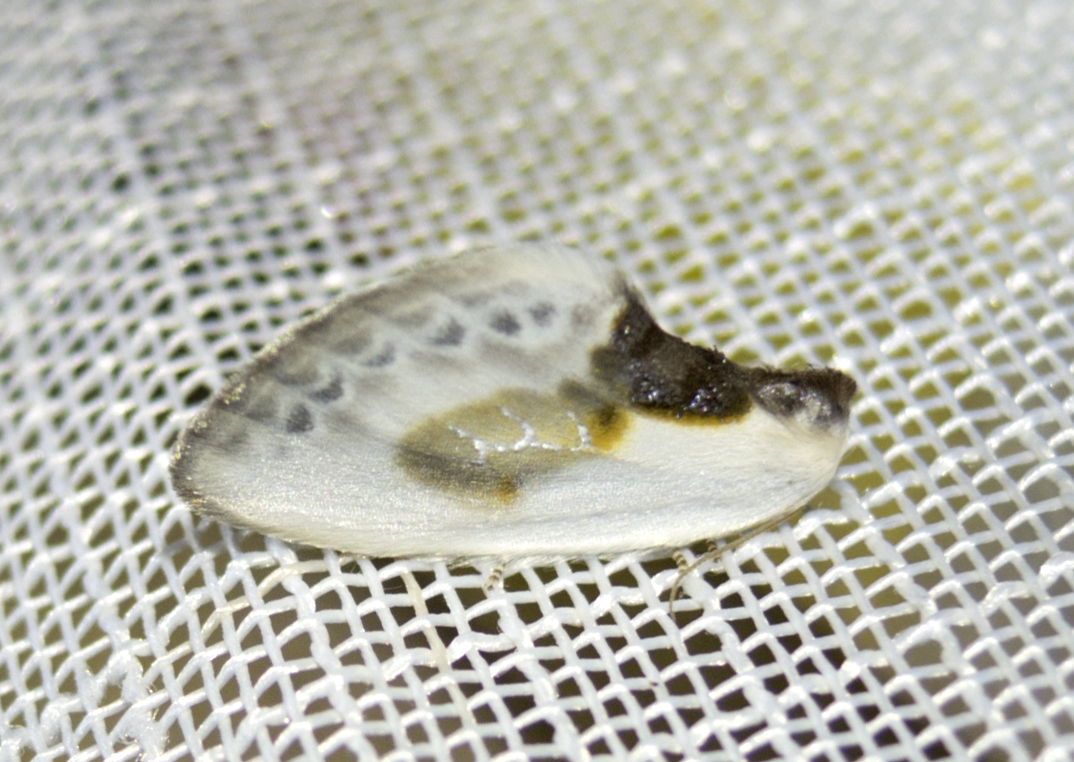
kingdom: Animalia
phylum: Arthropoda
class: Insecta
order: Lepidoptera
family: Drepanidae
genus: Cilix
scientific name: Cilix glaucata
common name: Chinese character
